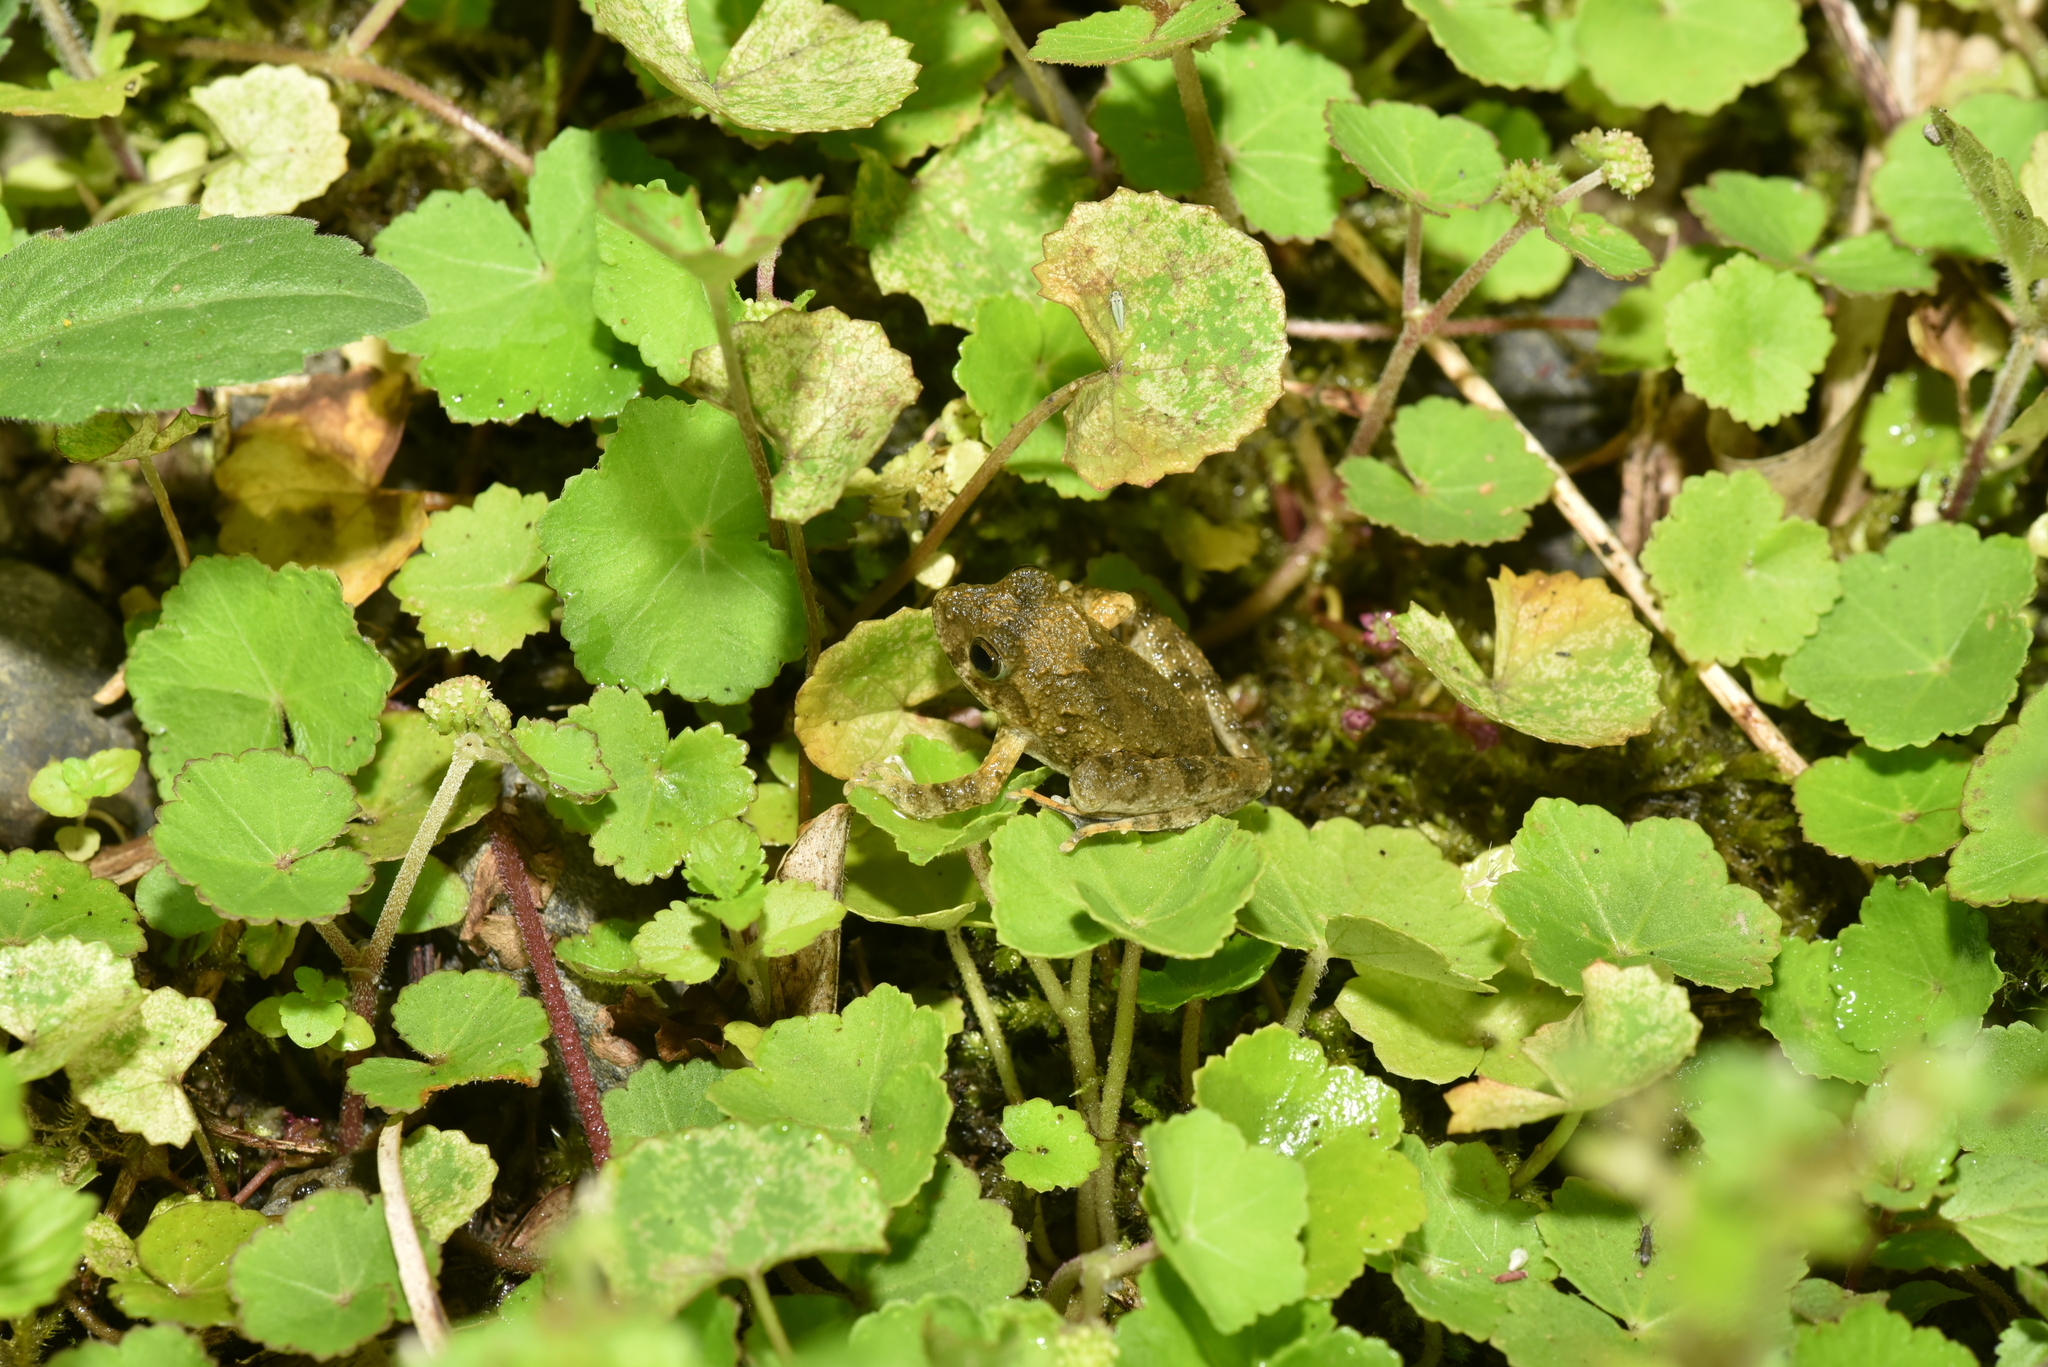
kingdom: Animalia
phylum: Chordata
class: Amphibia
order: Anura
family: Rhacophoridae
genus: Buergeria
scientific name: Buergeria otai
